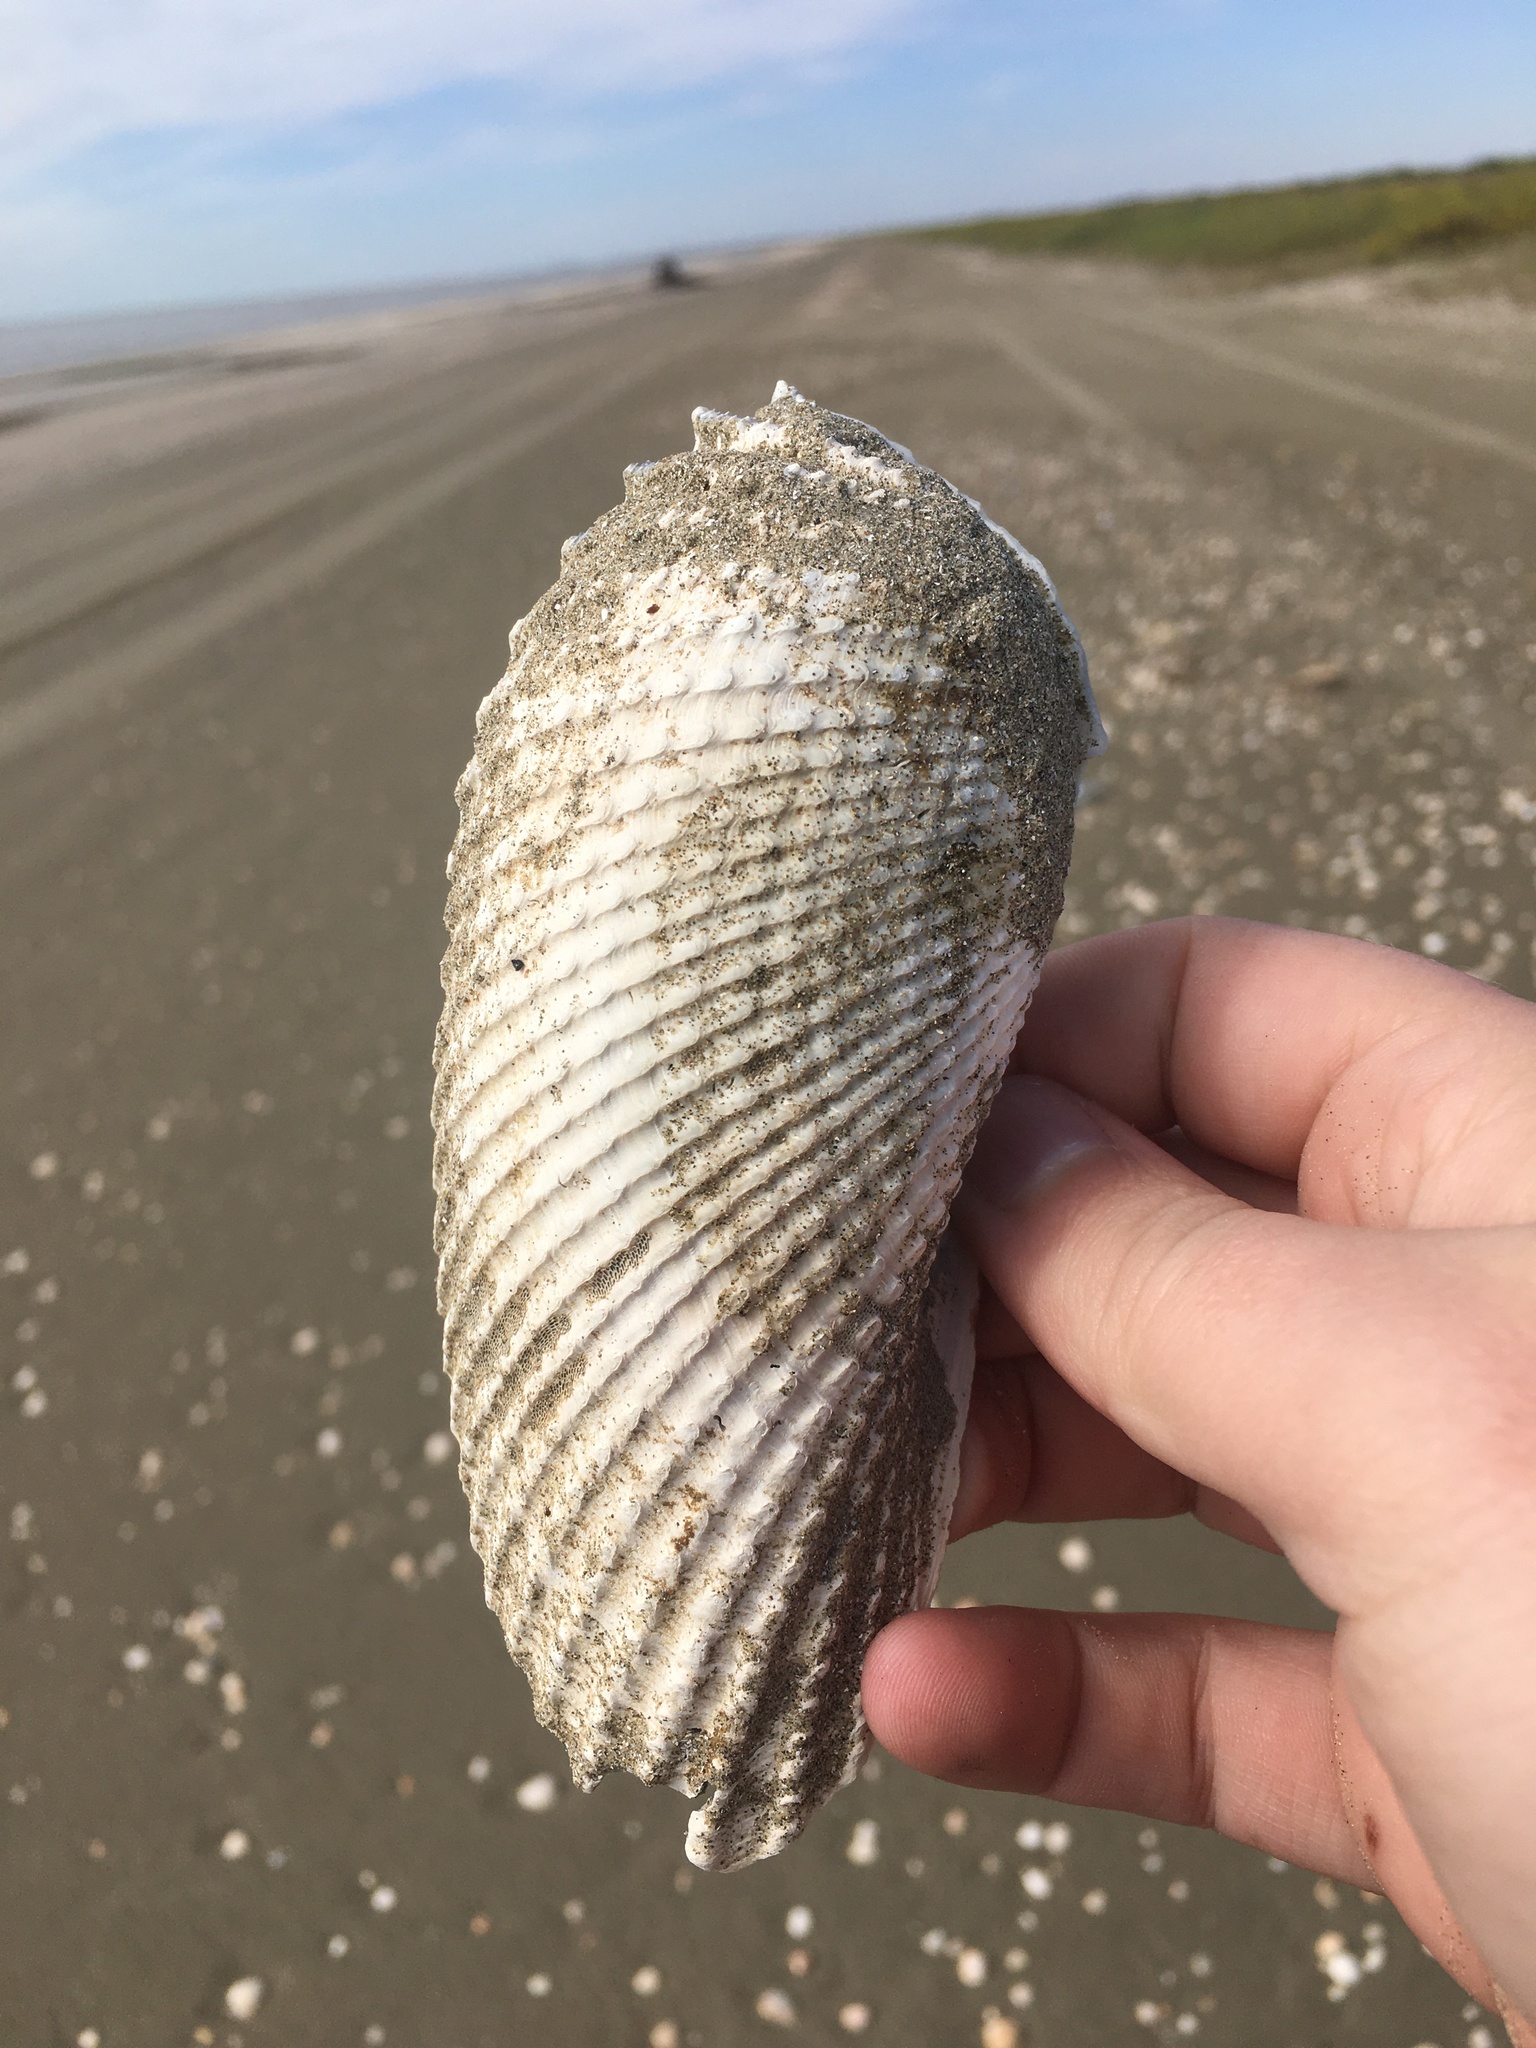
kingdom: Animalia
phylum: Mollusca
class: Bivalvia
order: Myida
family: Pholadidae
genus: Cyrtopleura
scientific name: Cyrtopleura costata
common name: Angel wing
